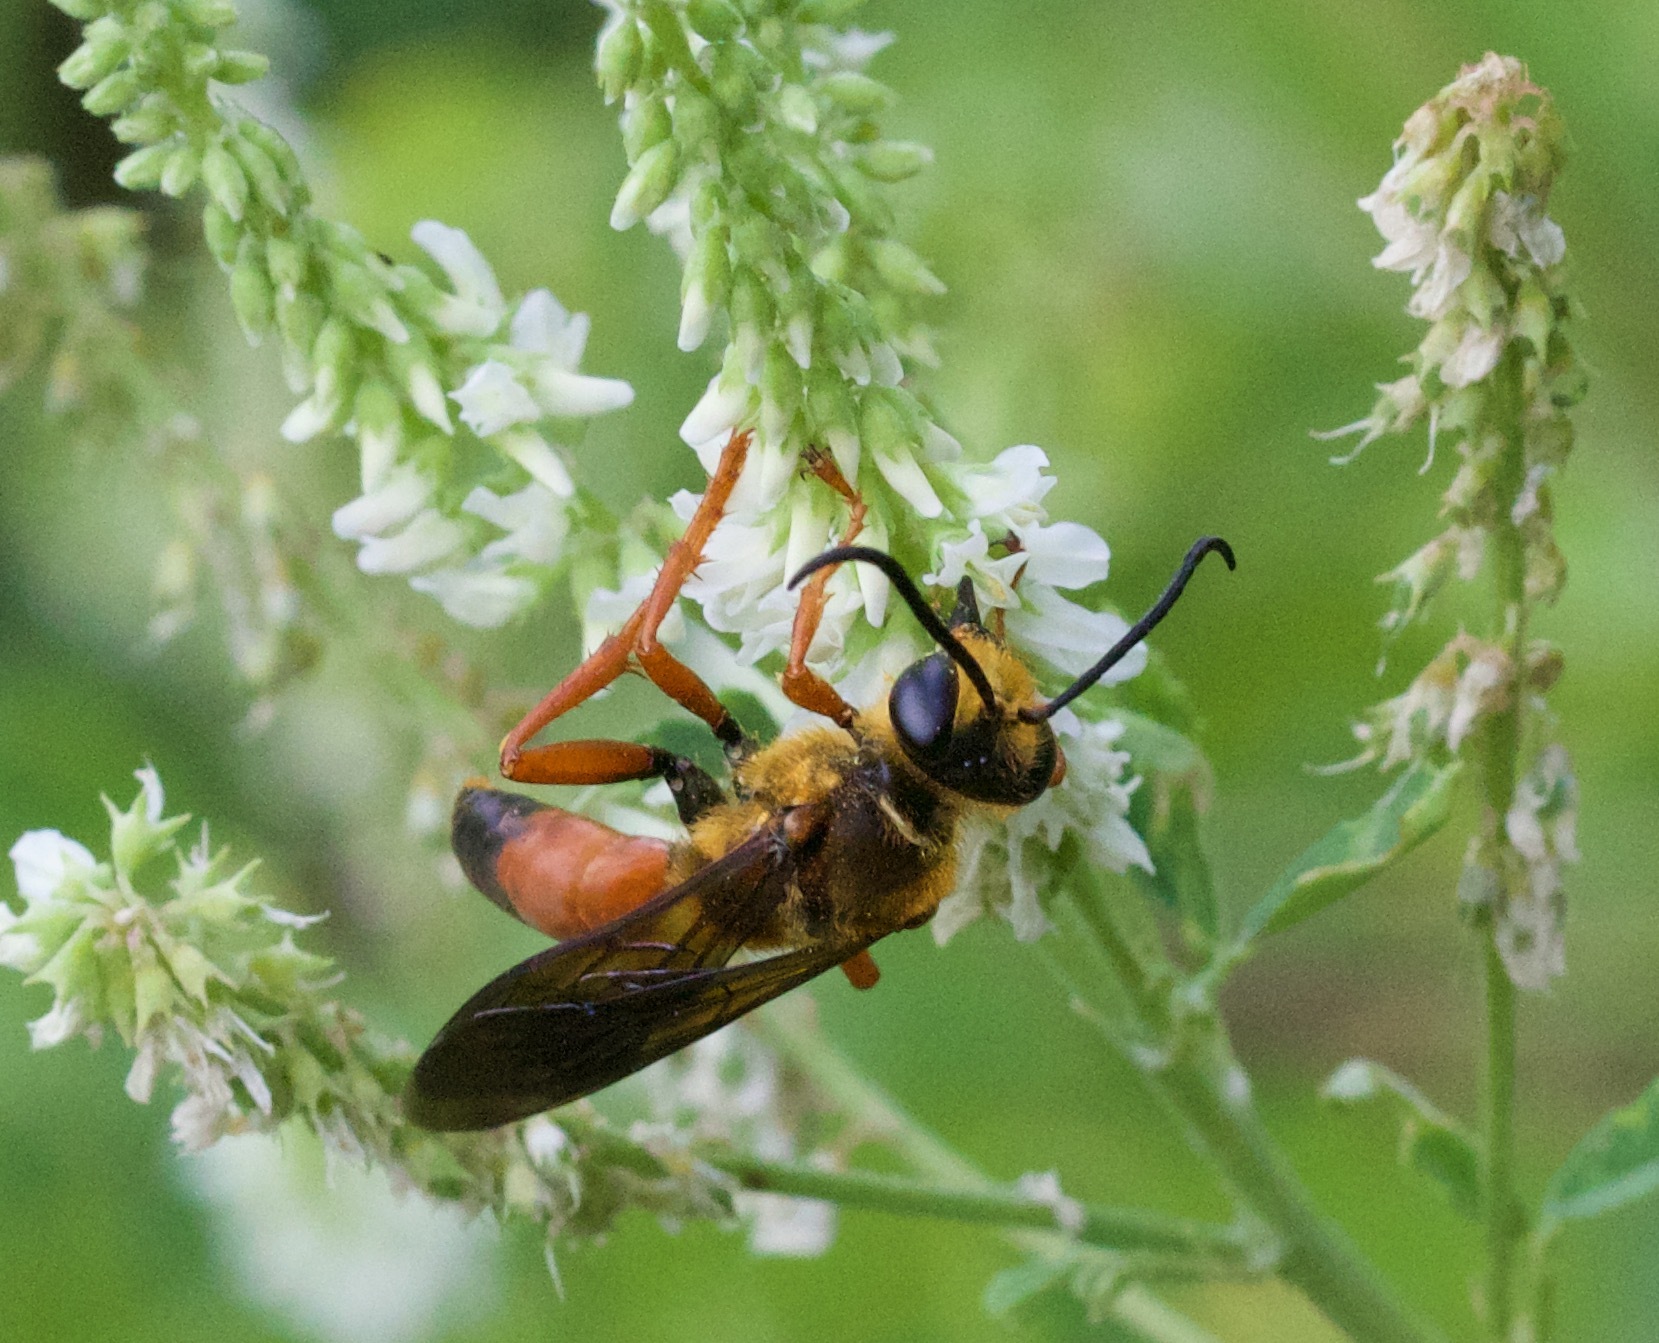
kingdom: Animalia
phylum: Arthropoda
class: Insecta
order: Hymenoptera
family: Sphecidae
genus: Sphex
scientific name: Sphex ichneumoneus
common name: Great golden digger wasp
